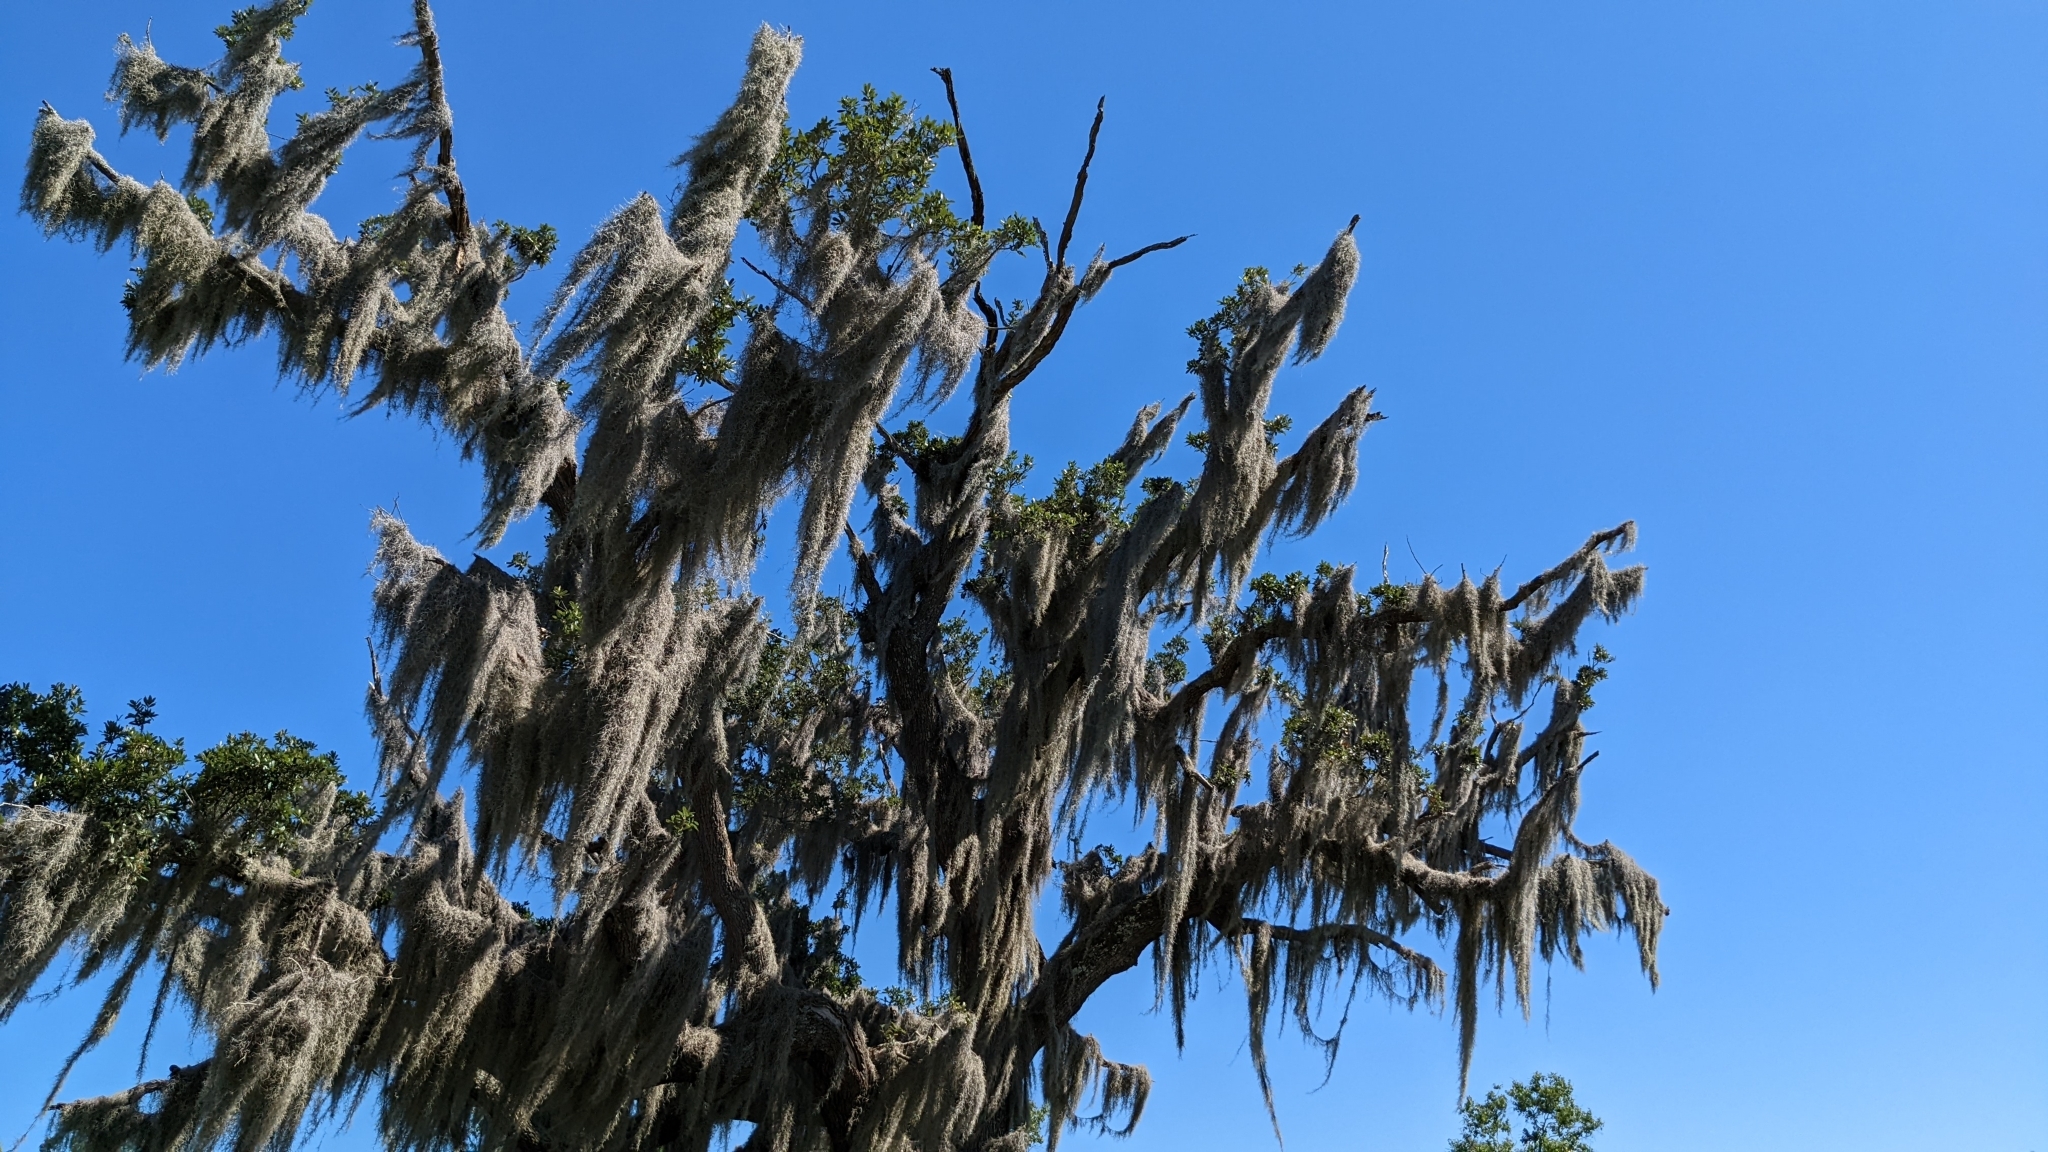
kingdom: Plantae
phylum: Tracheophyta
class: Liliopsida
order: Poales
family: Bromeliaceae
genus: Tillandsia
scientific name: Tillandsia usneoides
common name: Spanish moss
